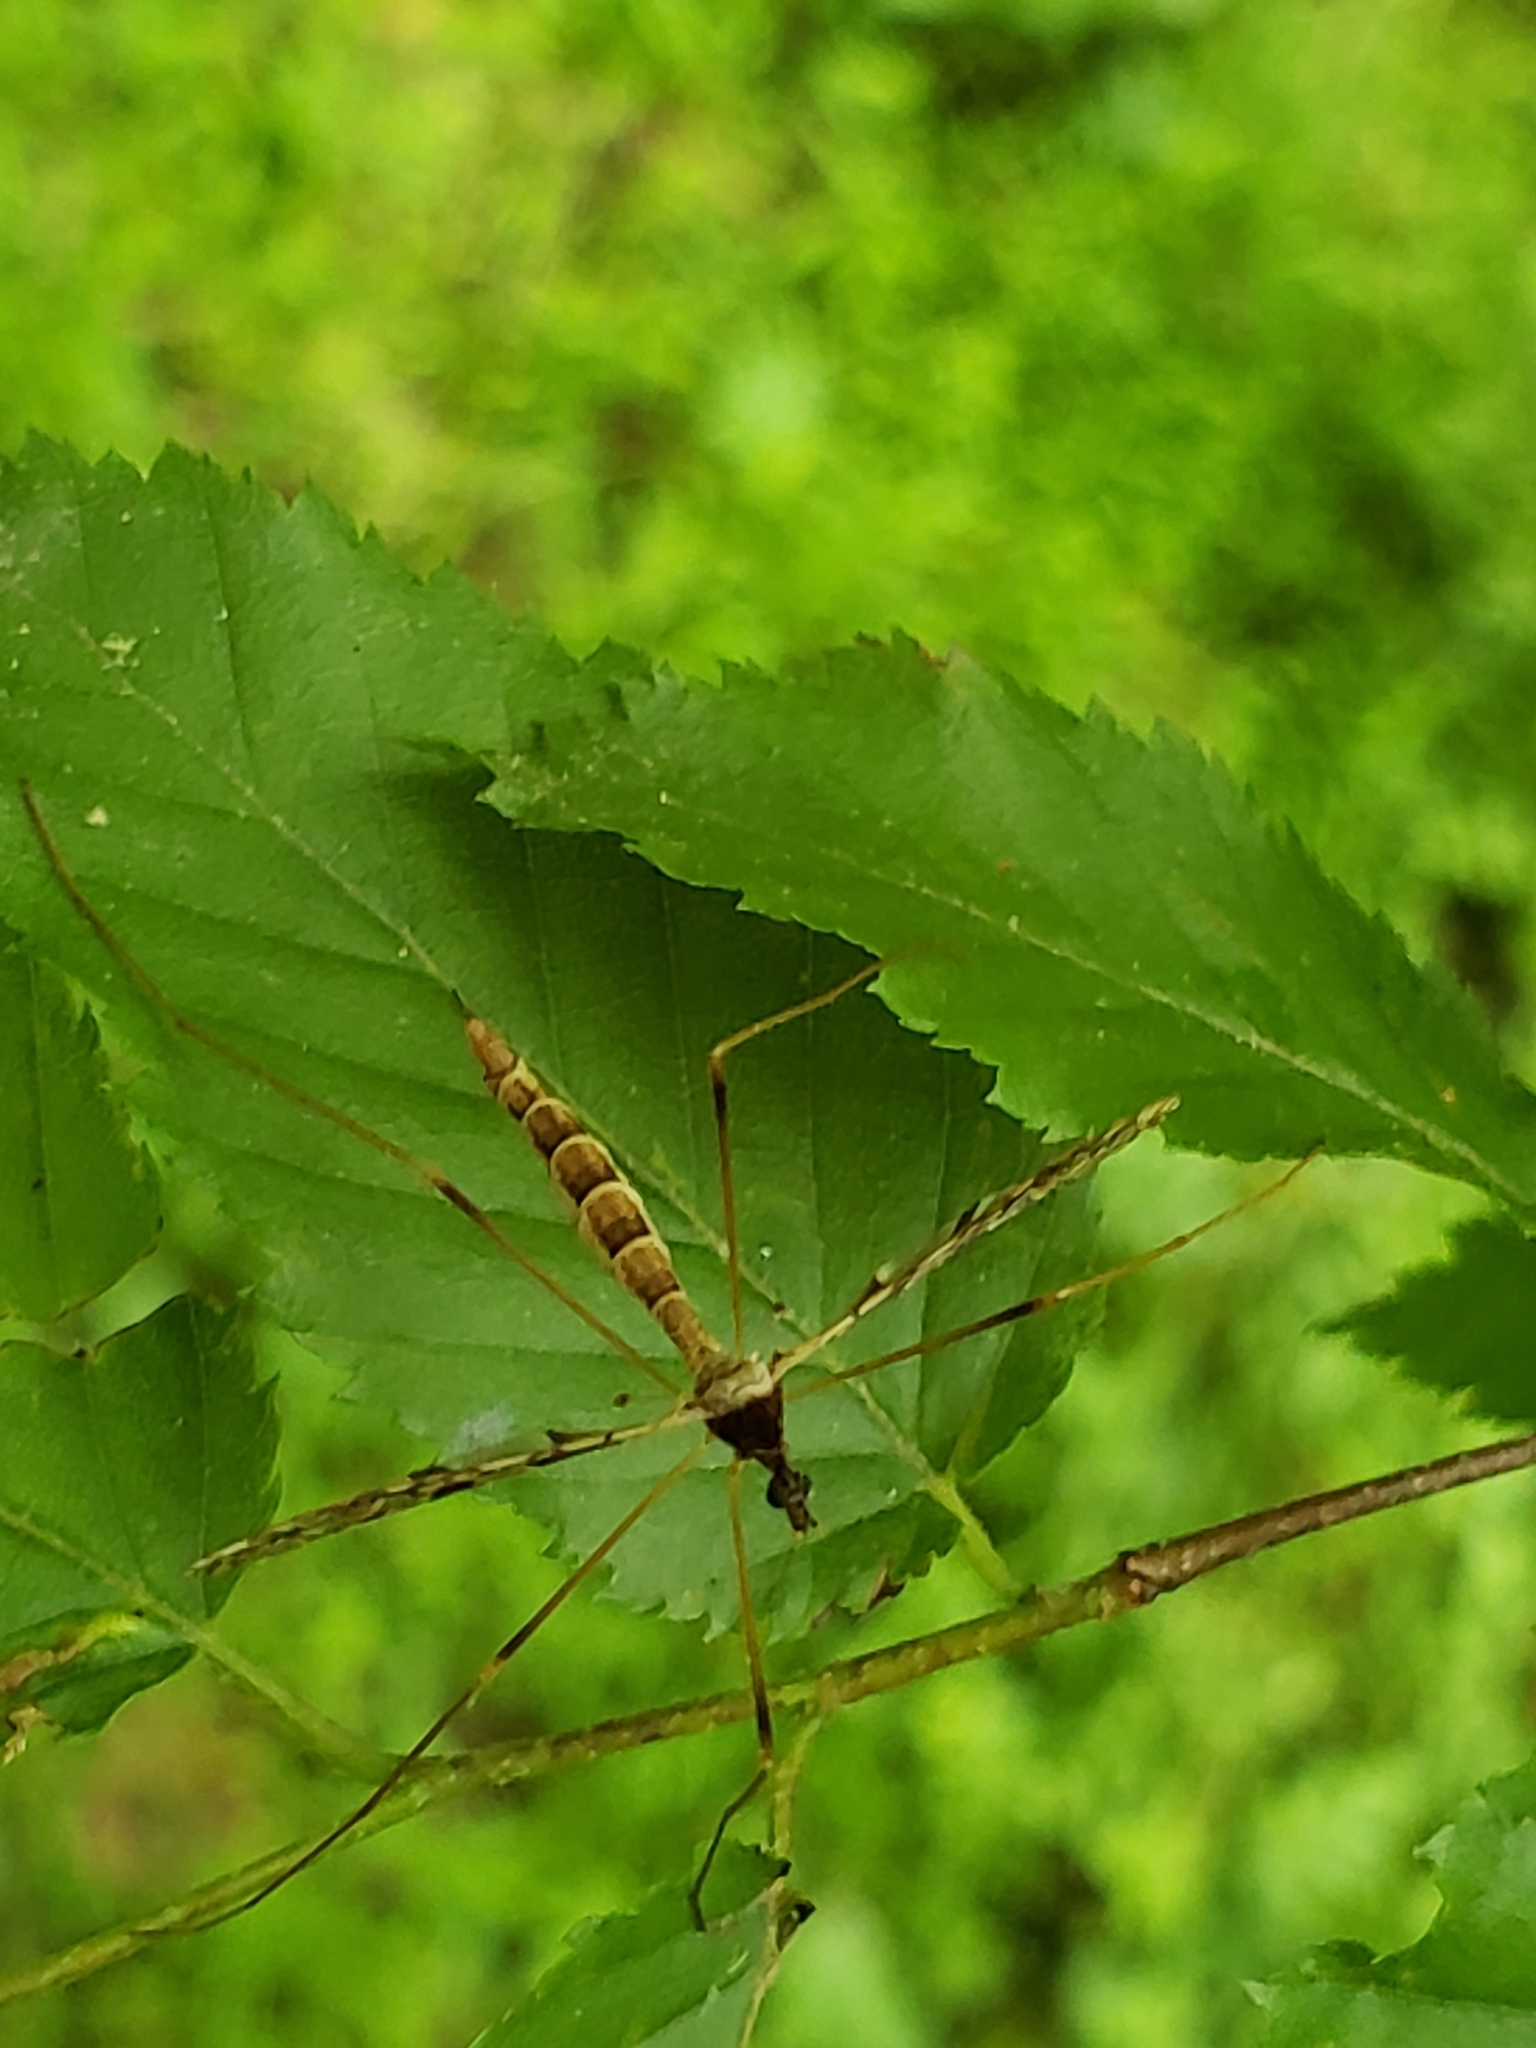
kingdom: Animalia
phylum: Arthropoda
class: Insecta
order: Diptera
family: Limoniidae
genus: Epiphragma
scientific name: Epiphragma solatrix
